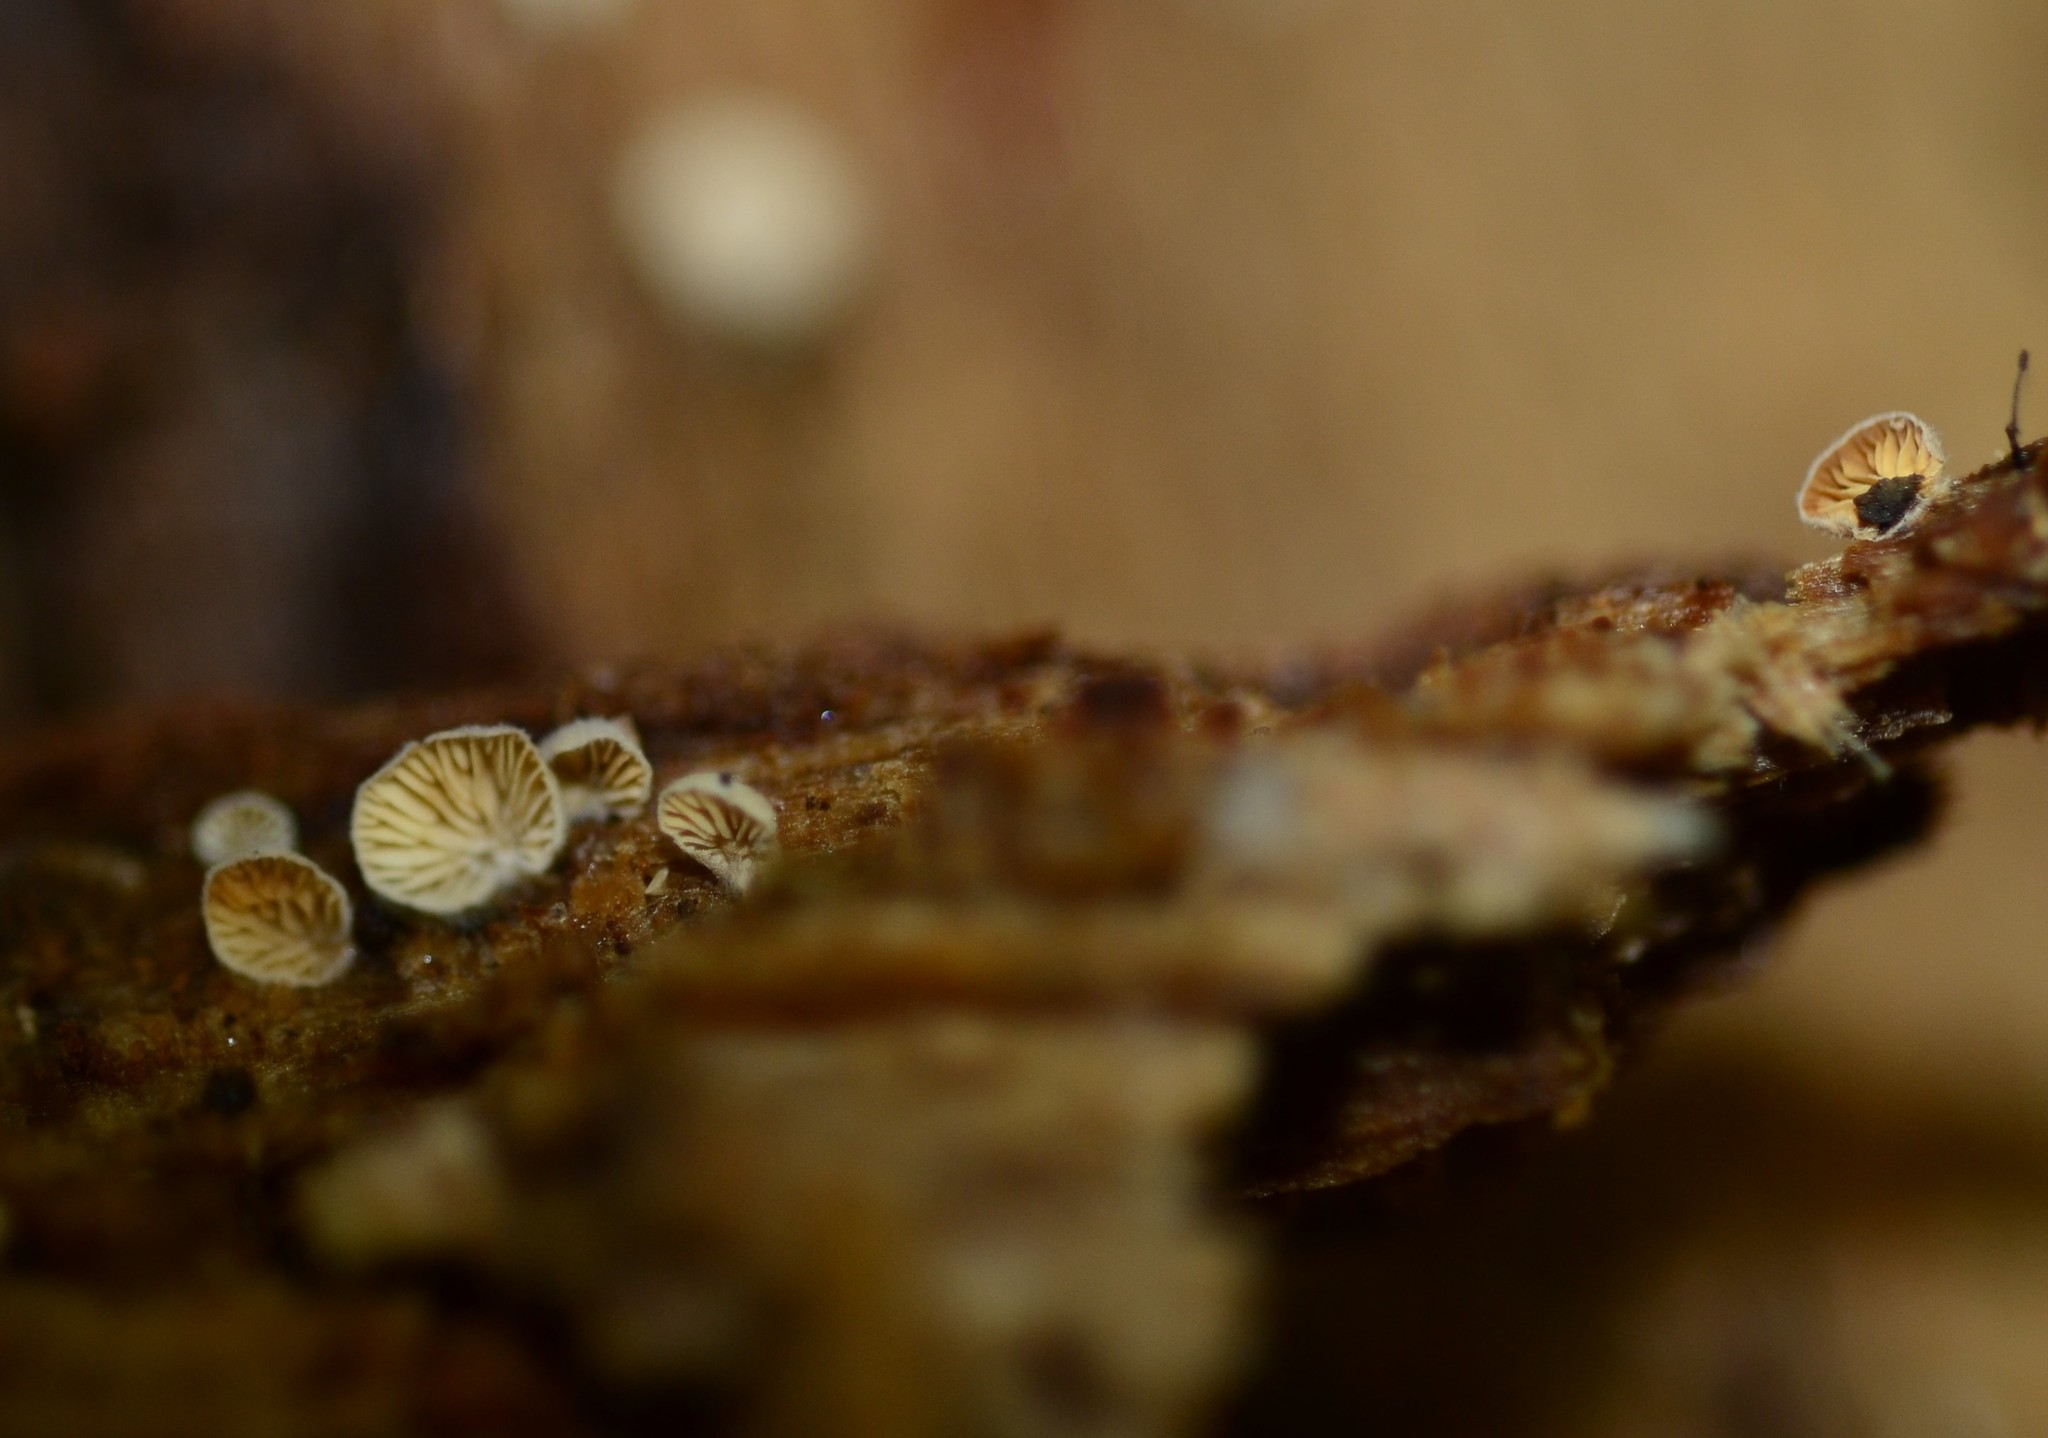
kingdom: Fungi
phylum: Basidiomycota
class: Agaricomycetes
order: Agaricales
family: Entolomataceae
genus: Clitopilus
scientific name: Clitopilus scyphoides
